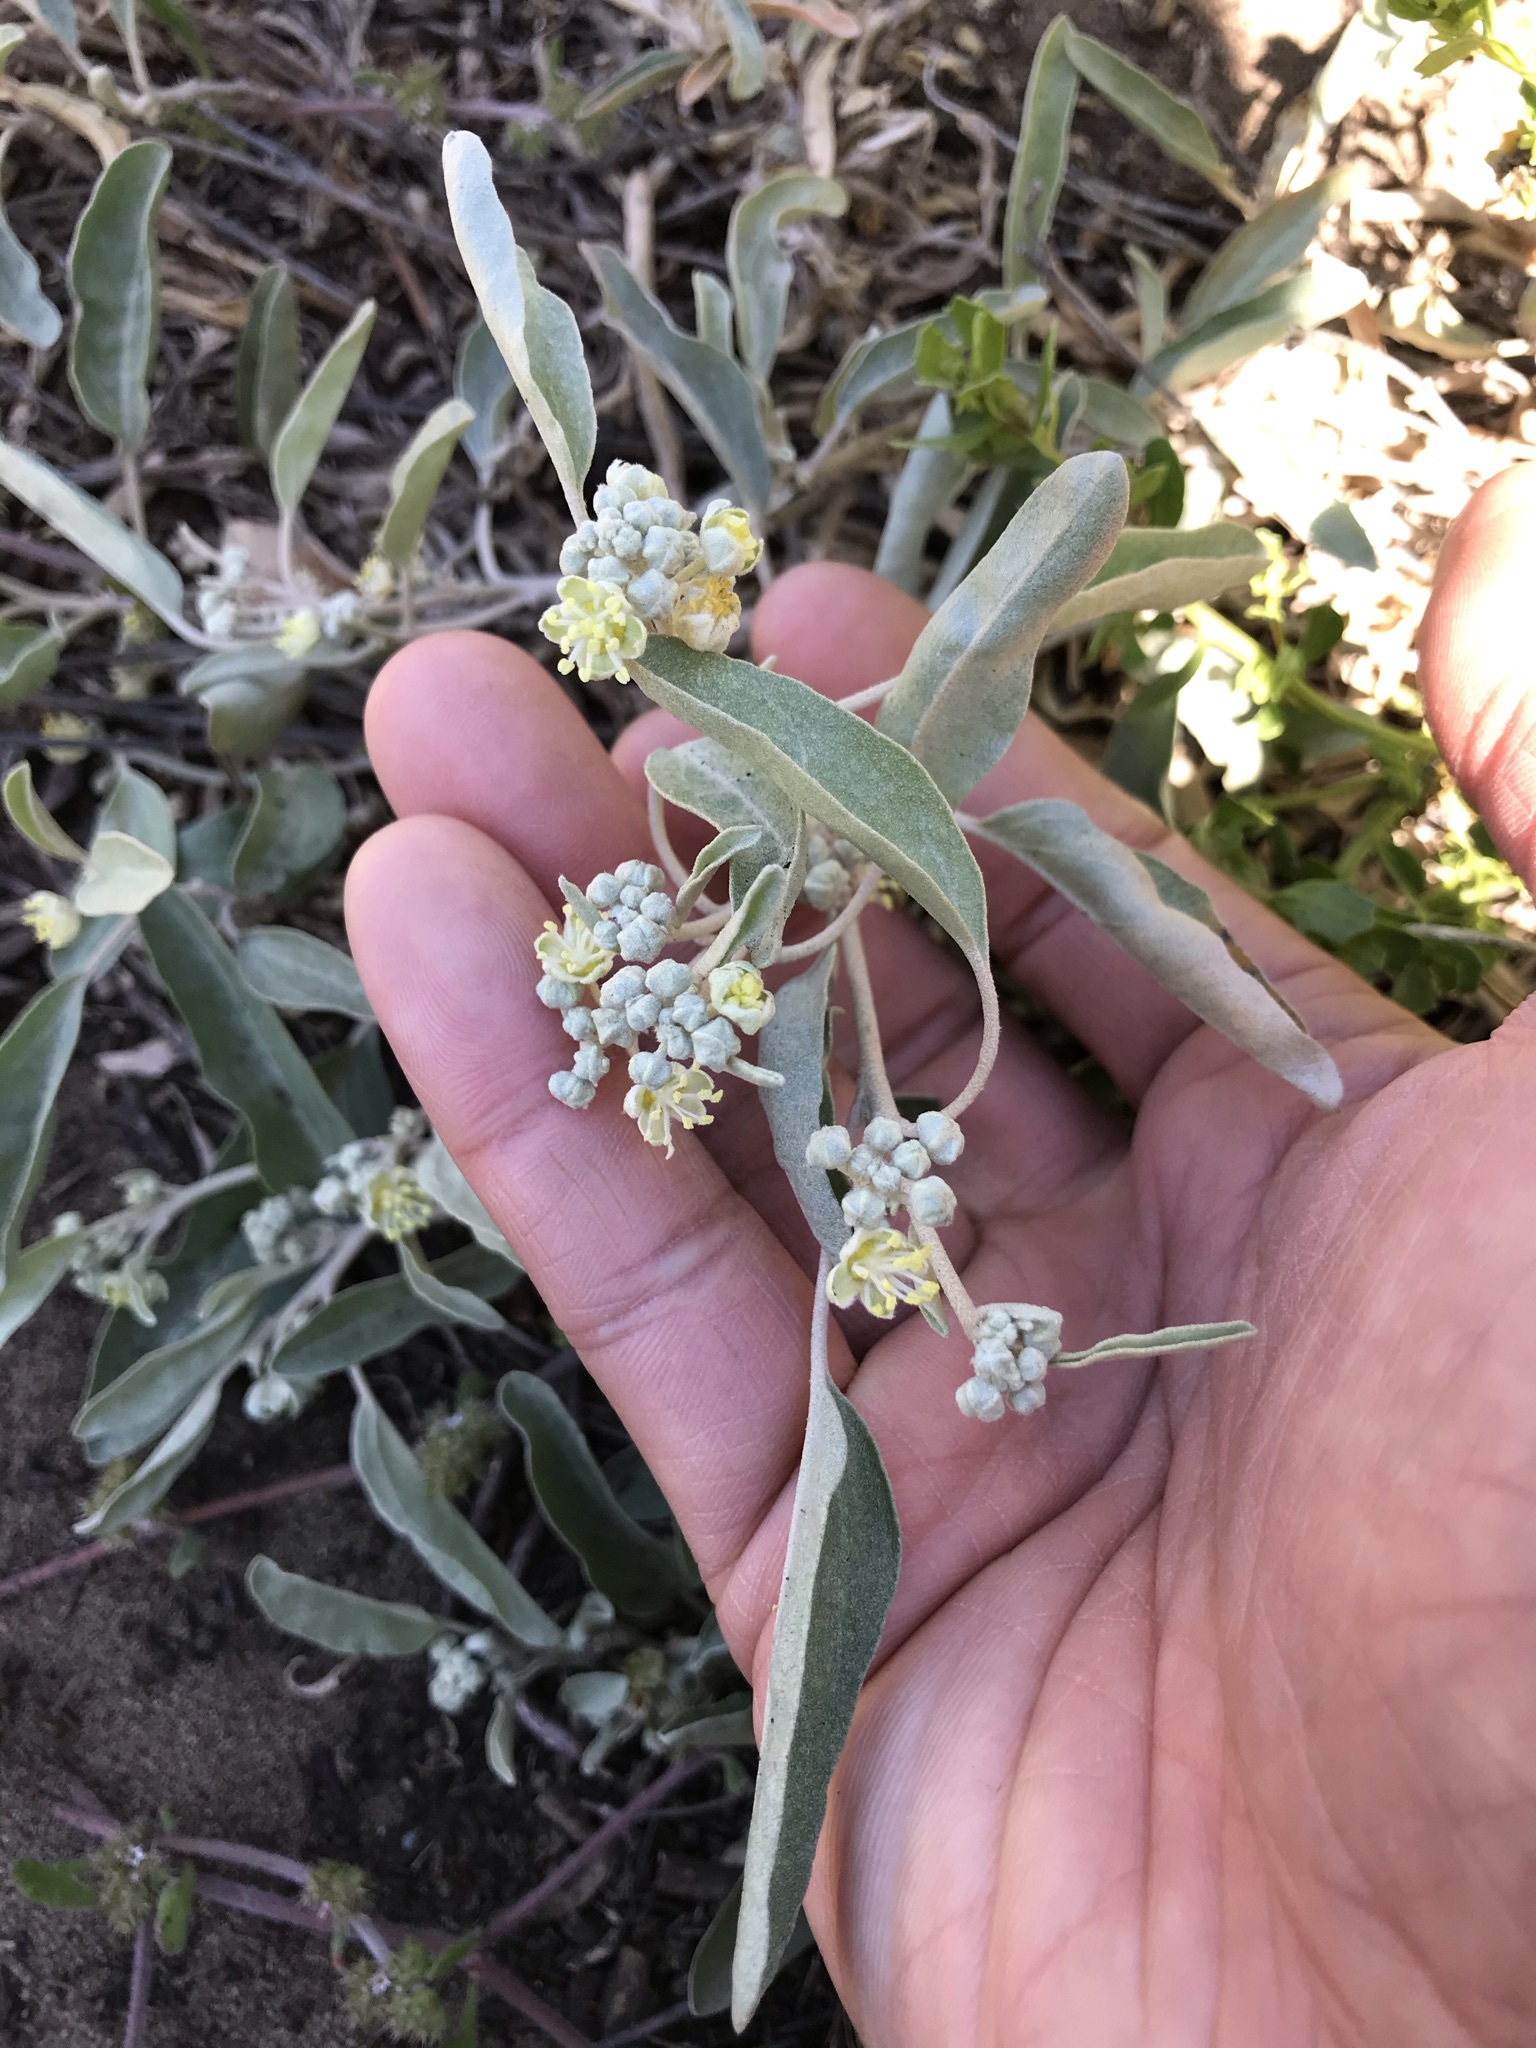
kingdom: Plantae
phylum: Tracheophyta
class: Magnoliopsida
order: Malpighiales
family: Euphorbiaceae
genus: Croton
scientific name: Croton californicus
